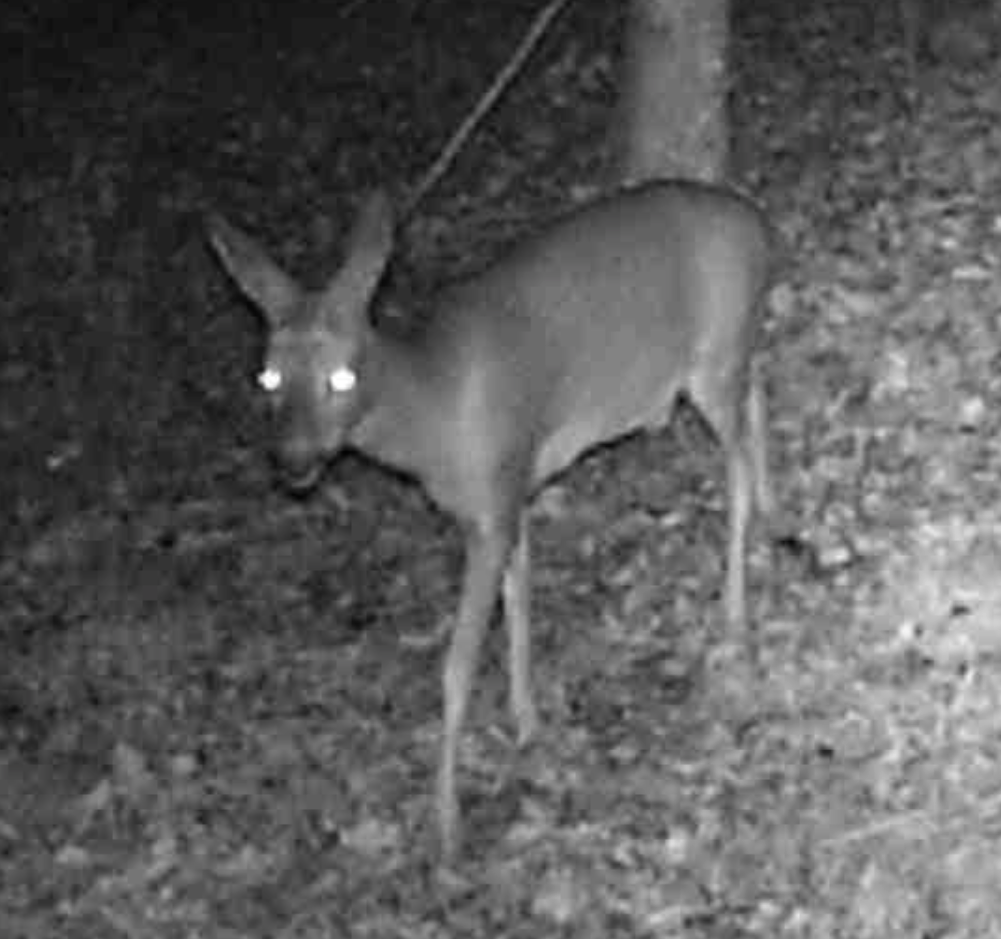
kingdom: Animalia
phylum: Chordata
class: Mammalia
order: Artiodactyla
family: Cervidae
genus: Capreolus
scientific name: Capreolus capreolus
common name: Western roe deer
